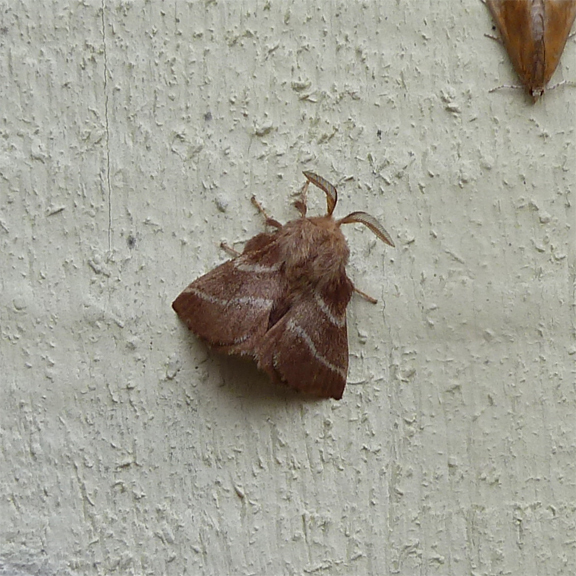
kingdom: Animalia
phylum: Arthropoda
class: Insecta
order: Lepidoptera
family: Lasiocampidae
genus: Malacosoma
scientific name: Malacosoma americana
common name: Eastern tent caterpillar moth
